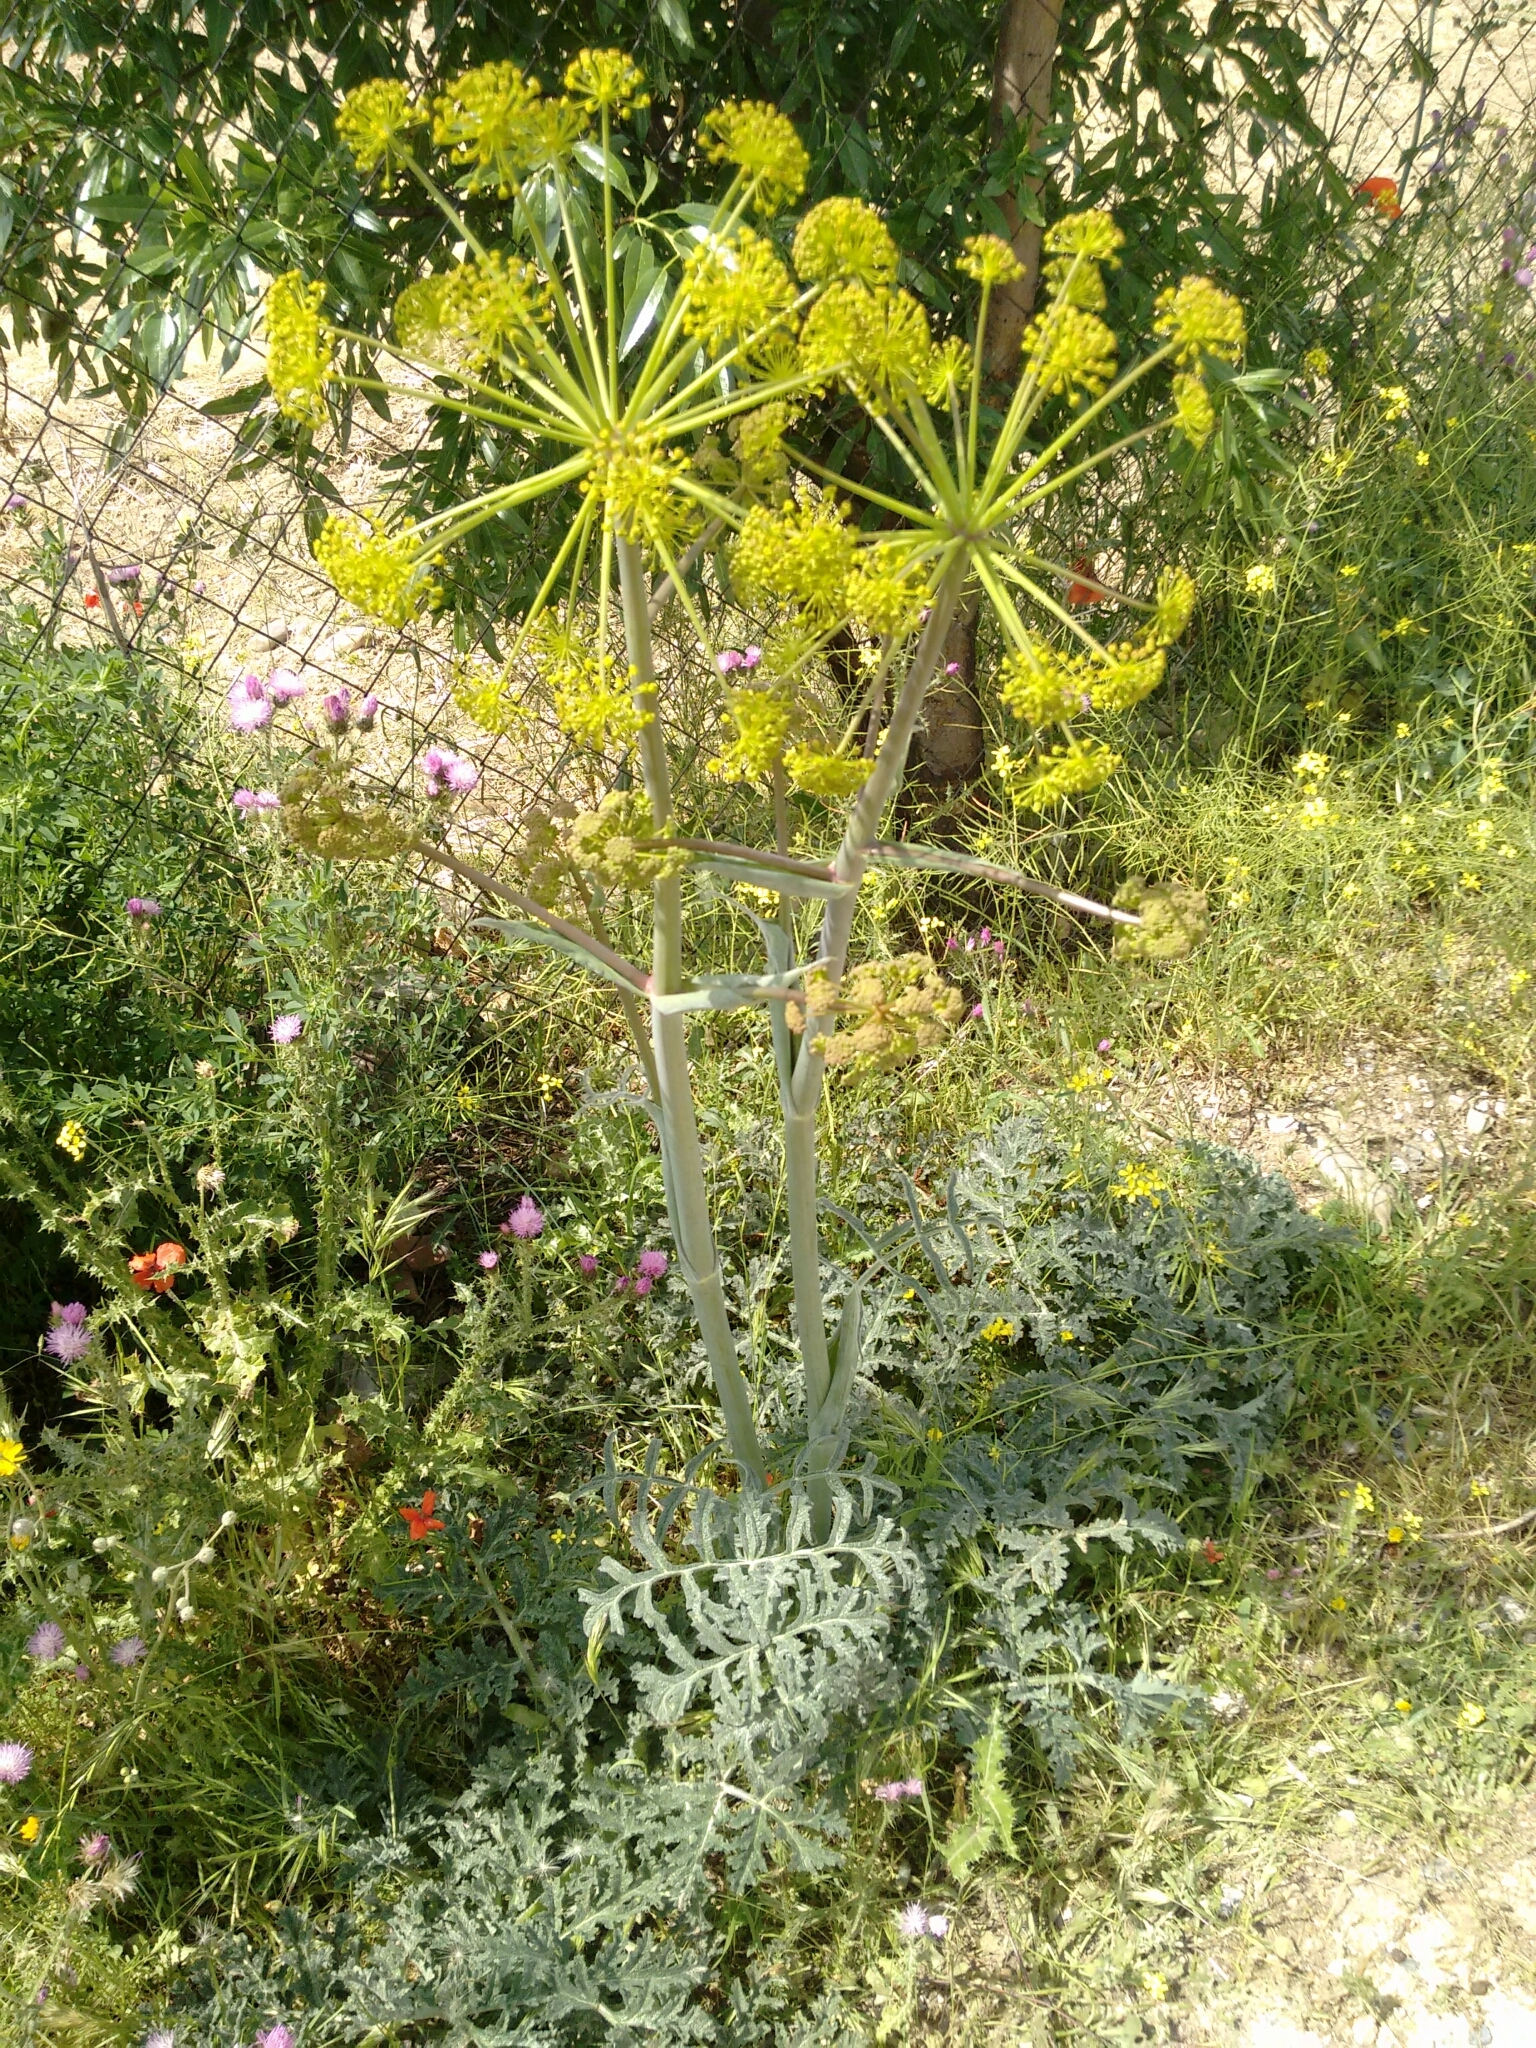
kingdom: Plantae
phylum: Tracheophyta
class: Magnoliopsida
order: Apiales
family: Apiaceae
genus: Thapsia
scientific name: Thapsia villosa
